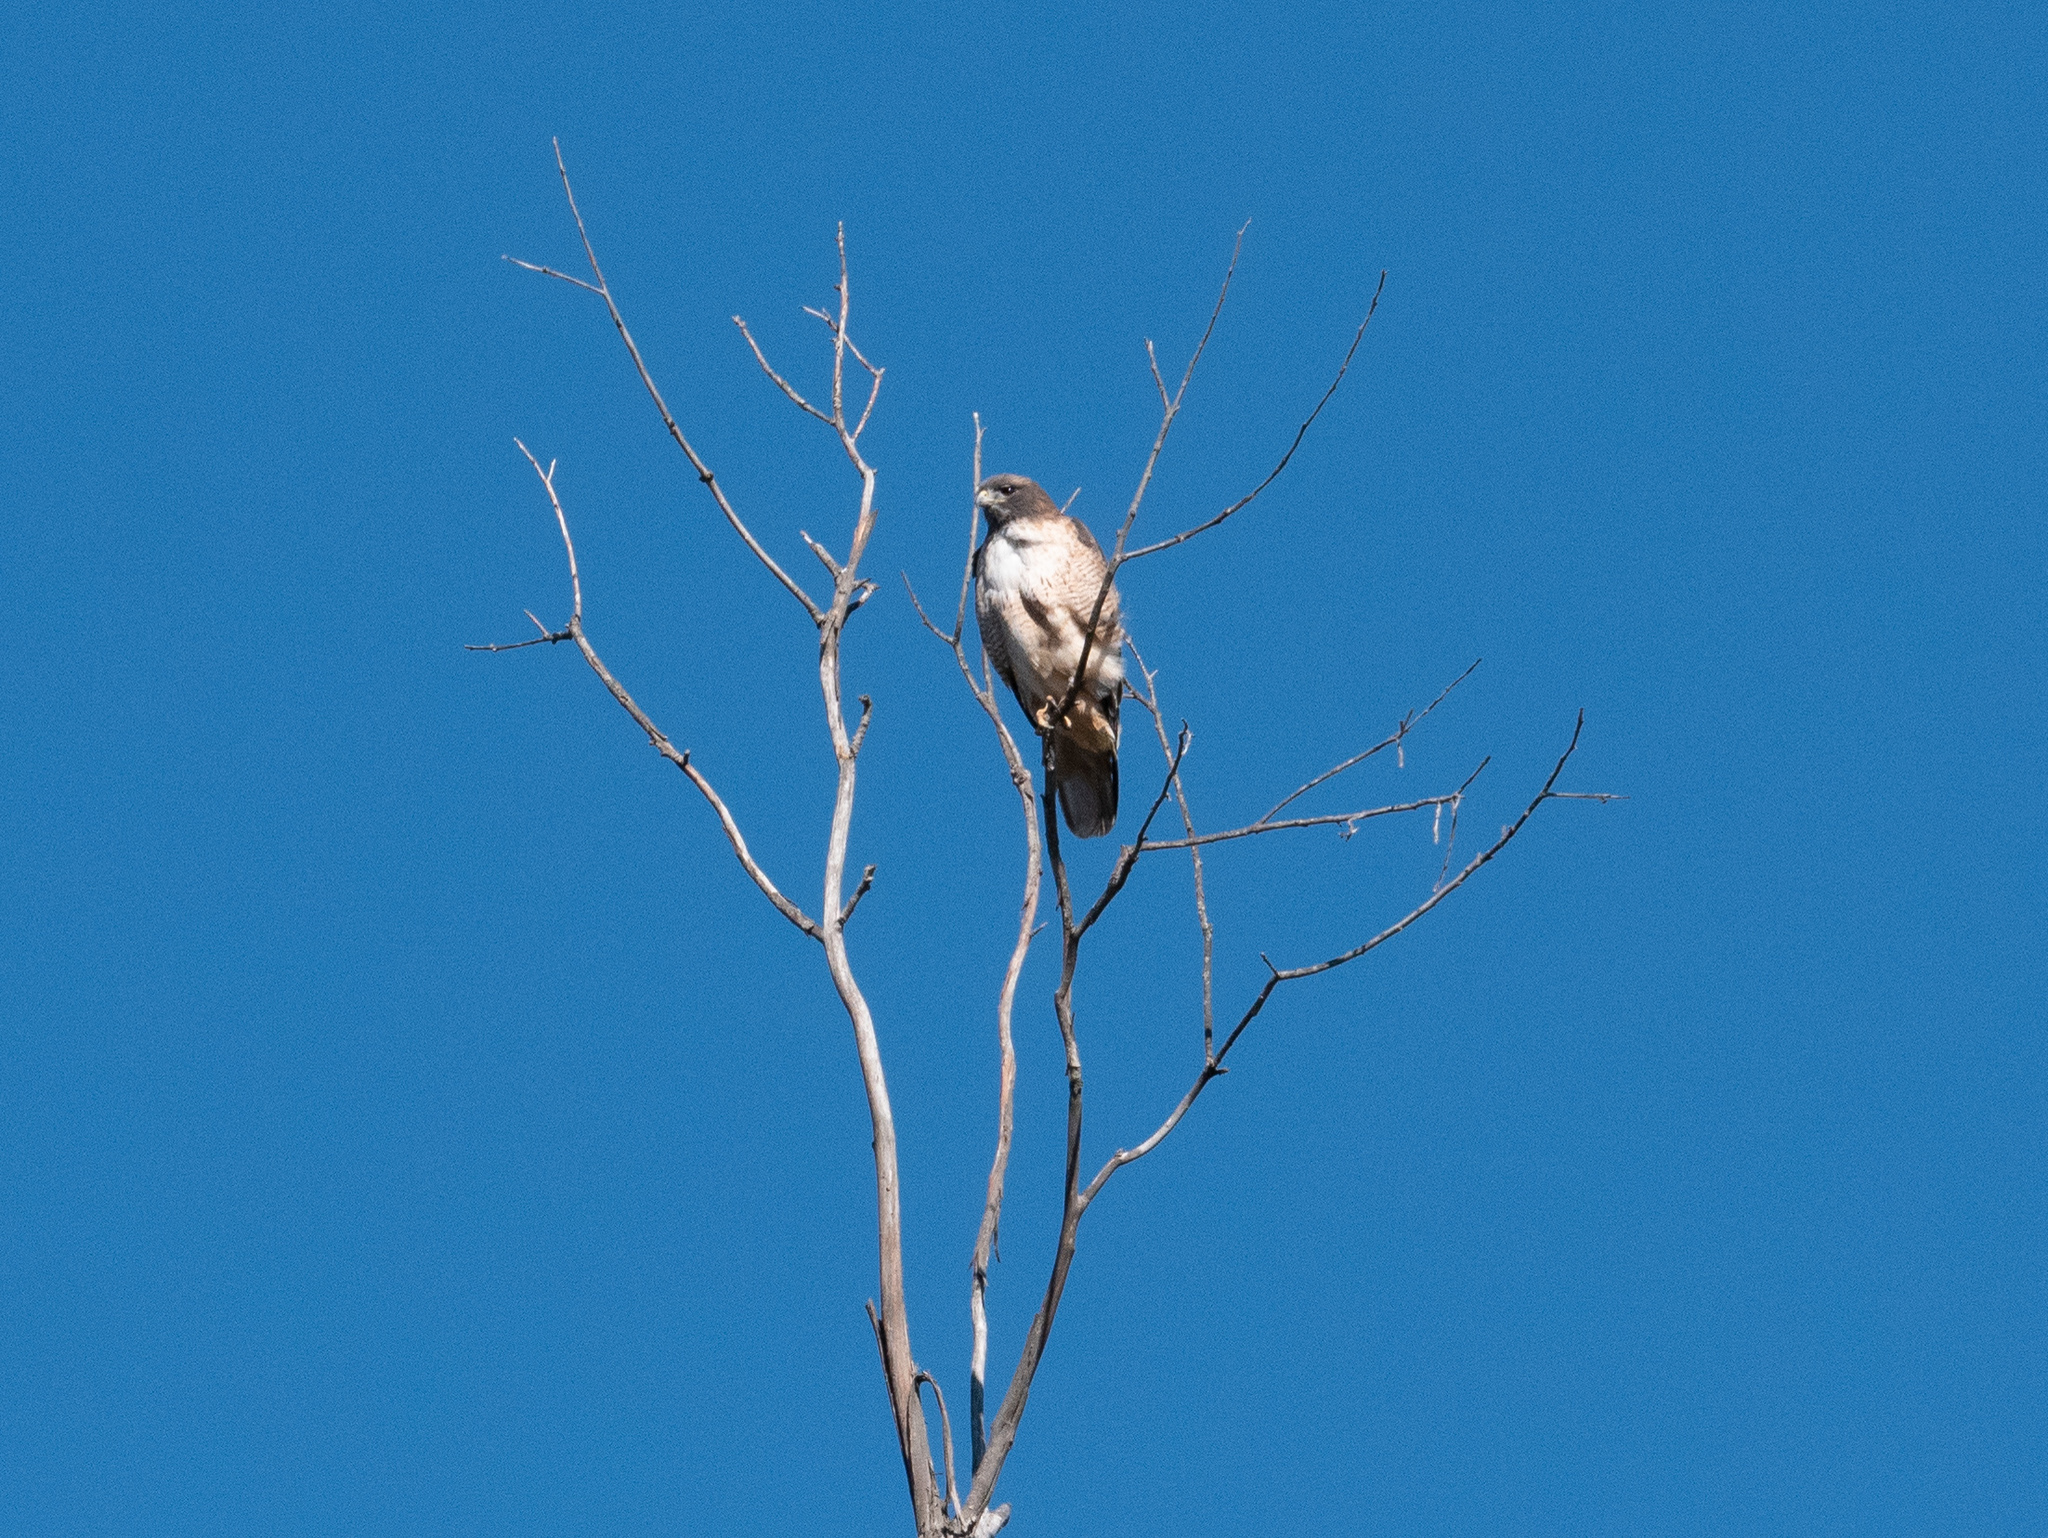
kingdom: Animalia
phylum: Chordata
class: Aves
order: Accipitriformes
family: Accipitridae
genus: Buteo
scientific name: Buteo jamaicensis
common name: Red-tailed hawk
